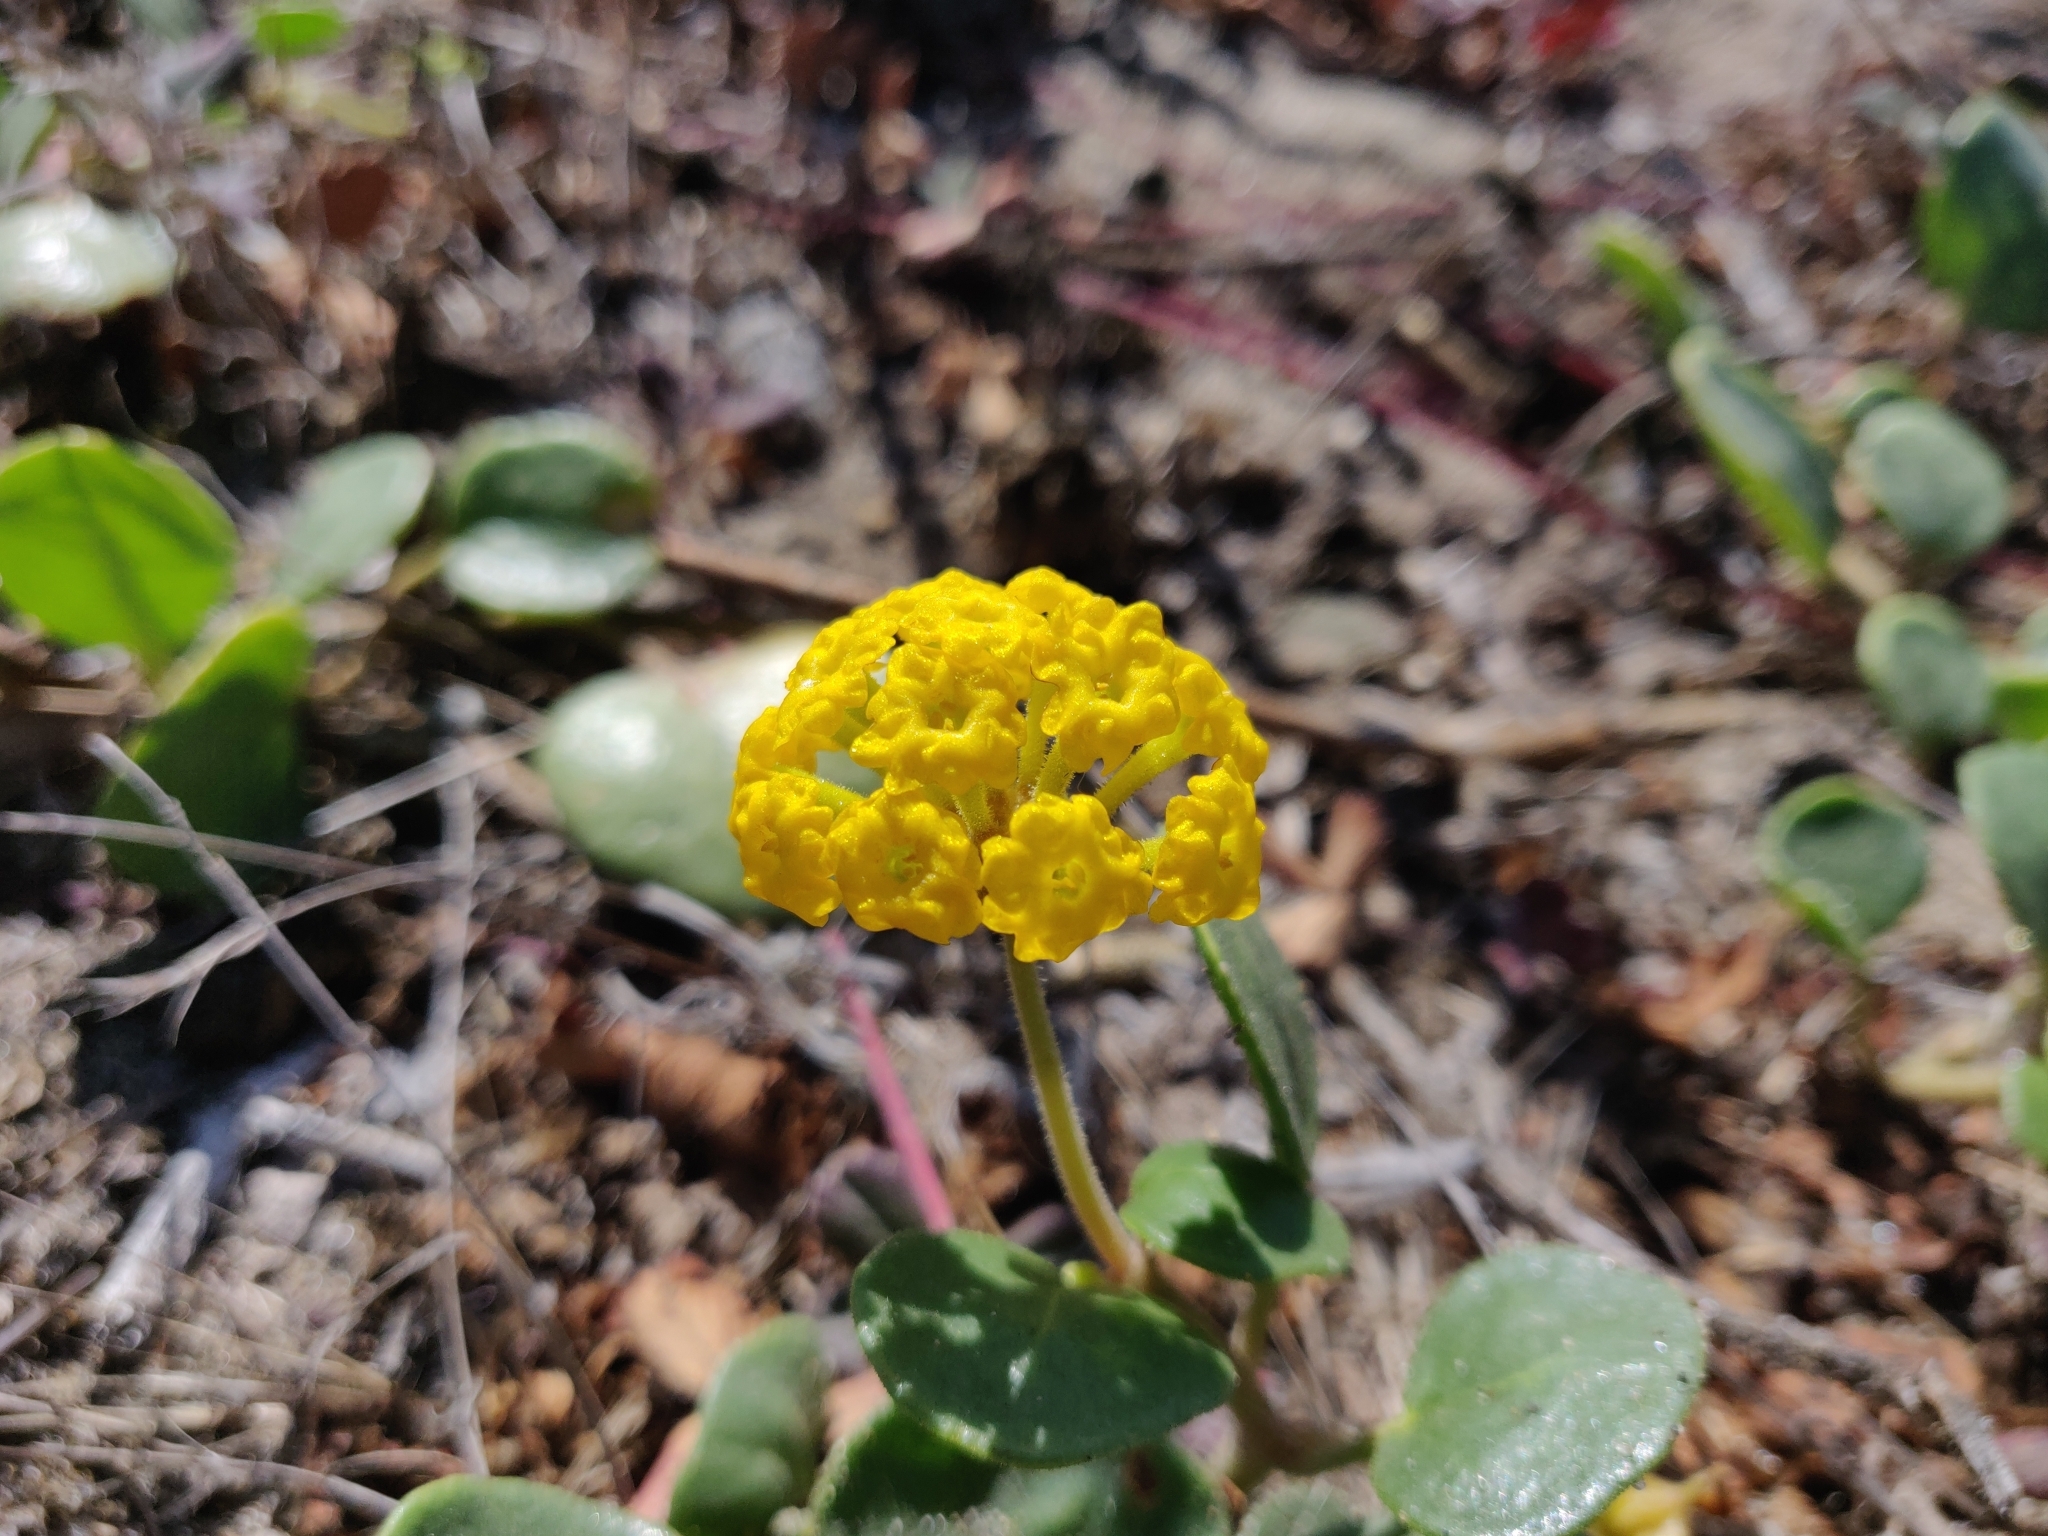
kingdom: Plantae
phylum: Tracheophyta
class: Magnoliopsida
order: Caryophyllales
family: Nyctaginaceae
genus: Abronia
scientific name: Abronia latifolia
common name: Yellow sand-verbena
